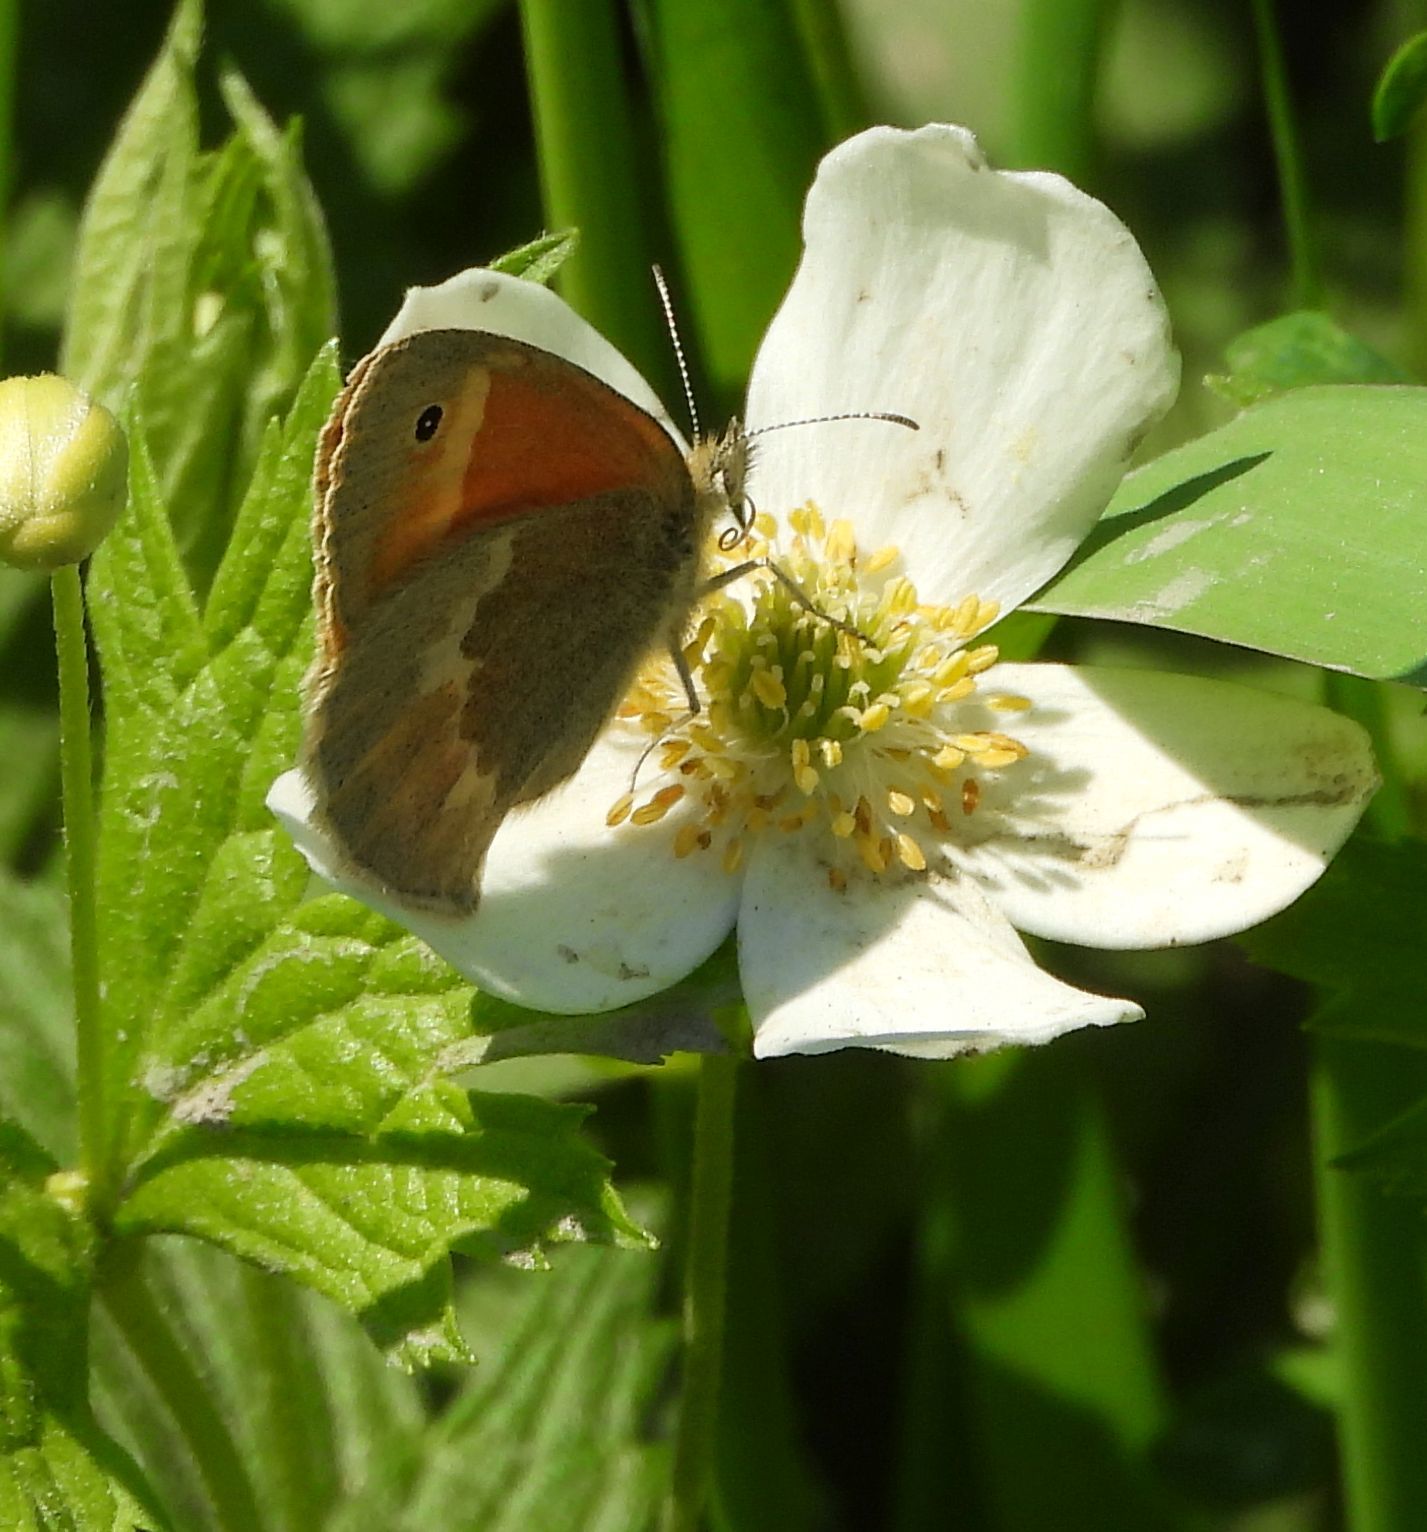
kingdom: Animalia
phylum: Arthropoda
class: Insecta
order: Lepidoptera
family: Nymphalidae
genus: Coenonympha
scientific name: Coenonympha california
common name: Common ringlet
